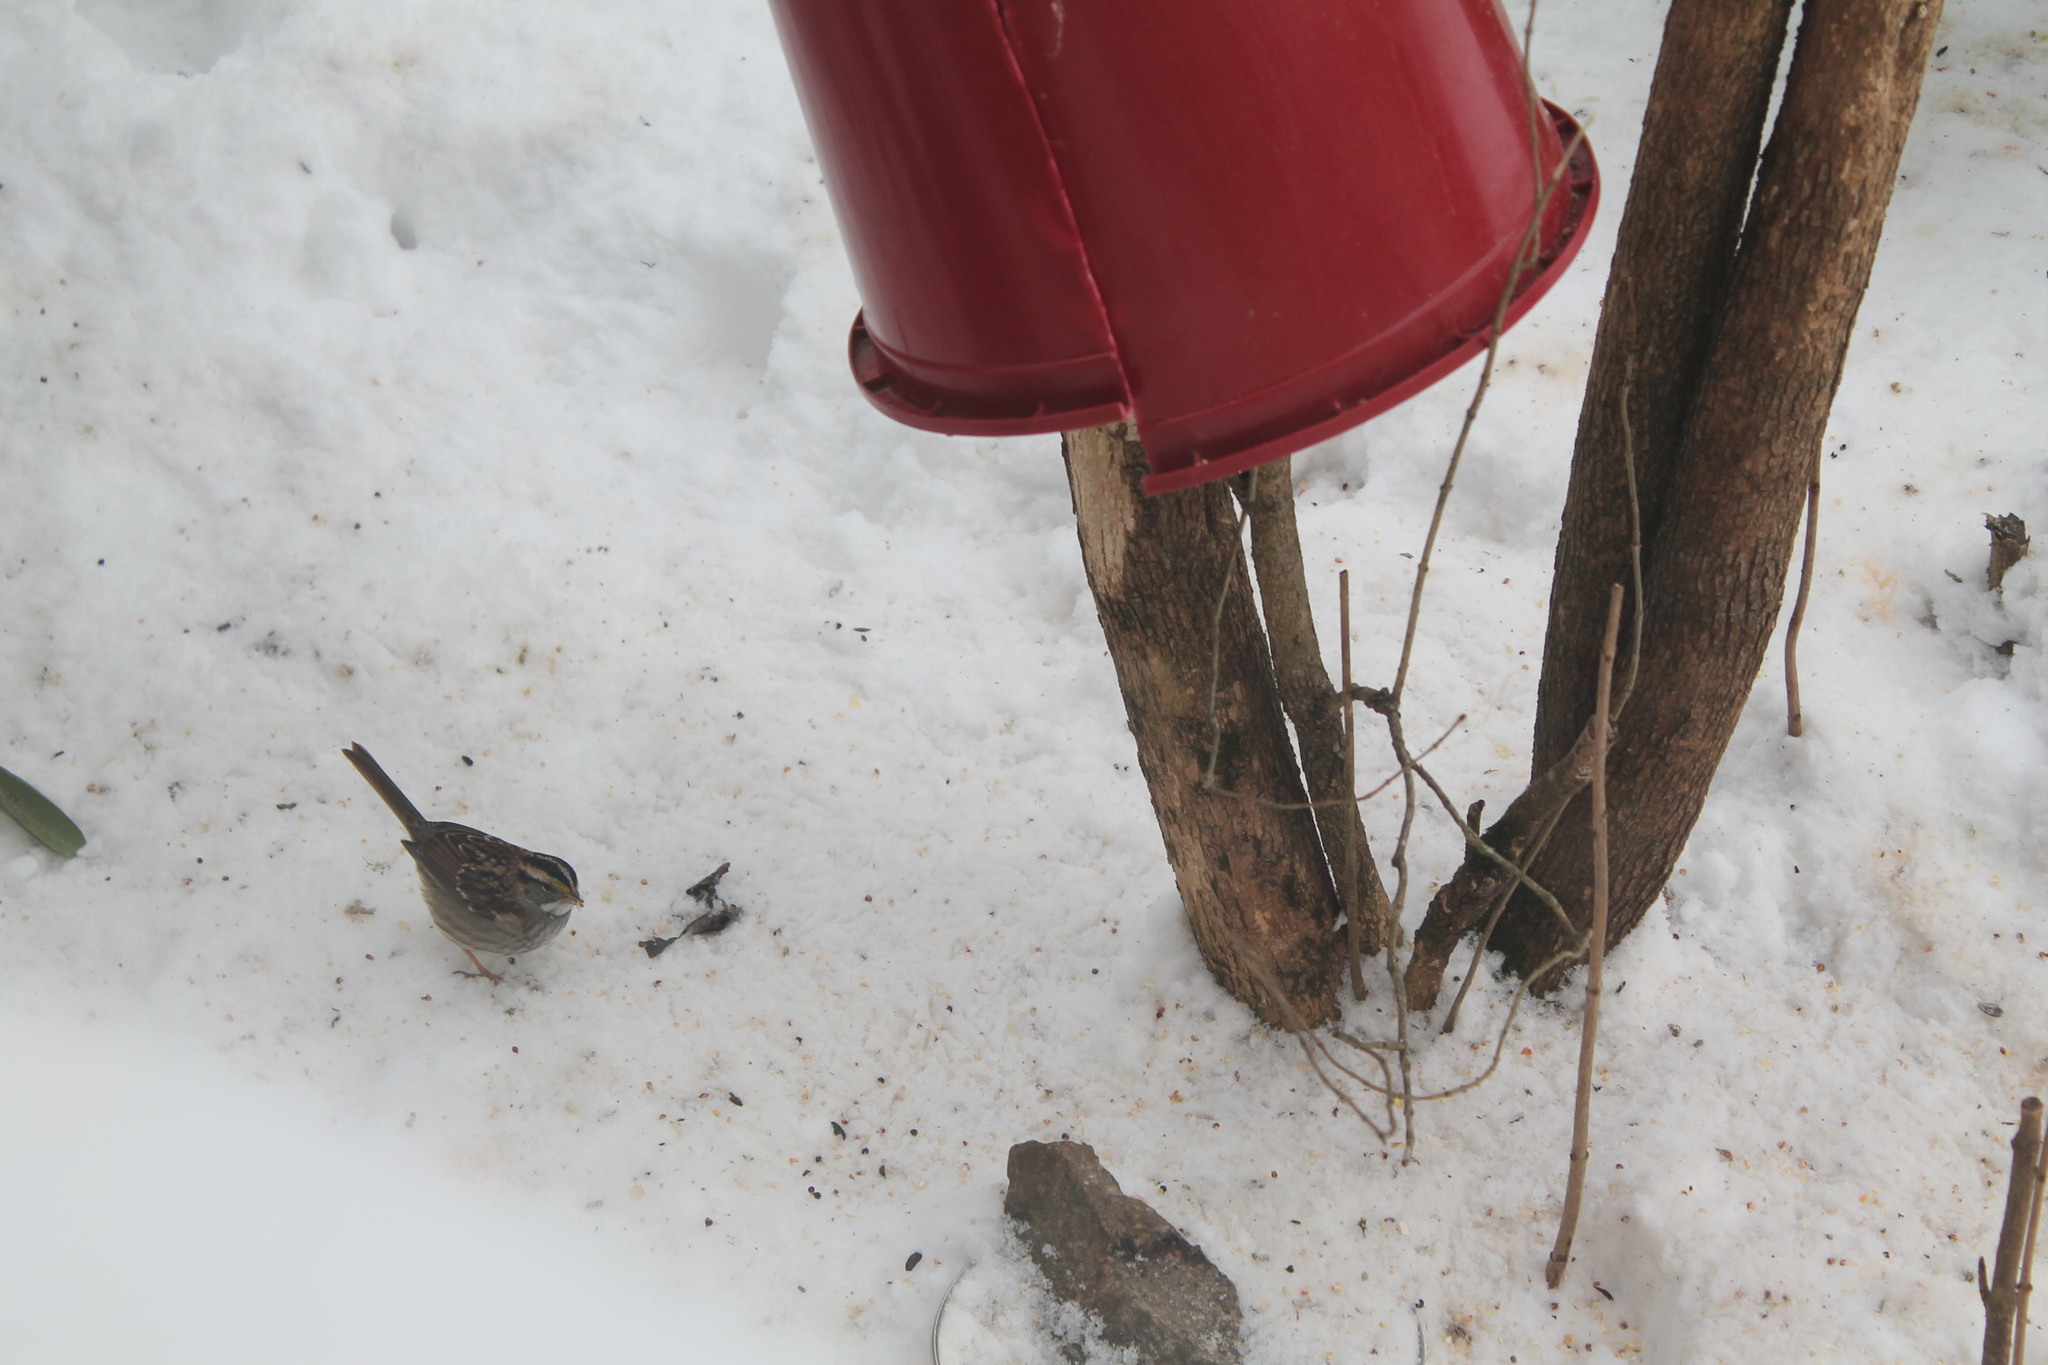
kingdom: Animalia
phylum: Chordata
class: Aves
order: Passeriformes
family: Passerellidae
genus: Zonotrichia
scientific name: Zonotrichia albicollis
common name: White-throated sparrow
